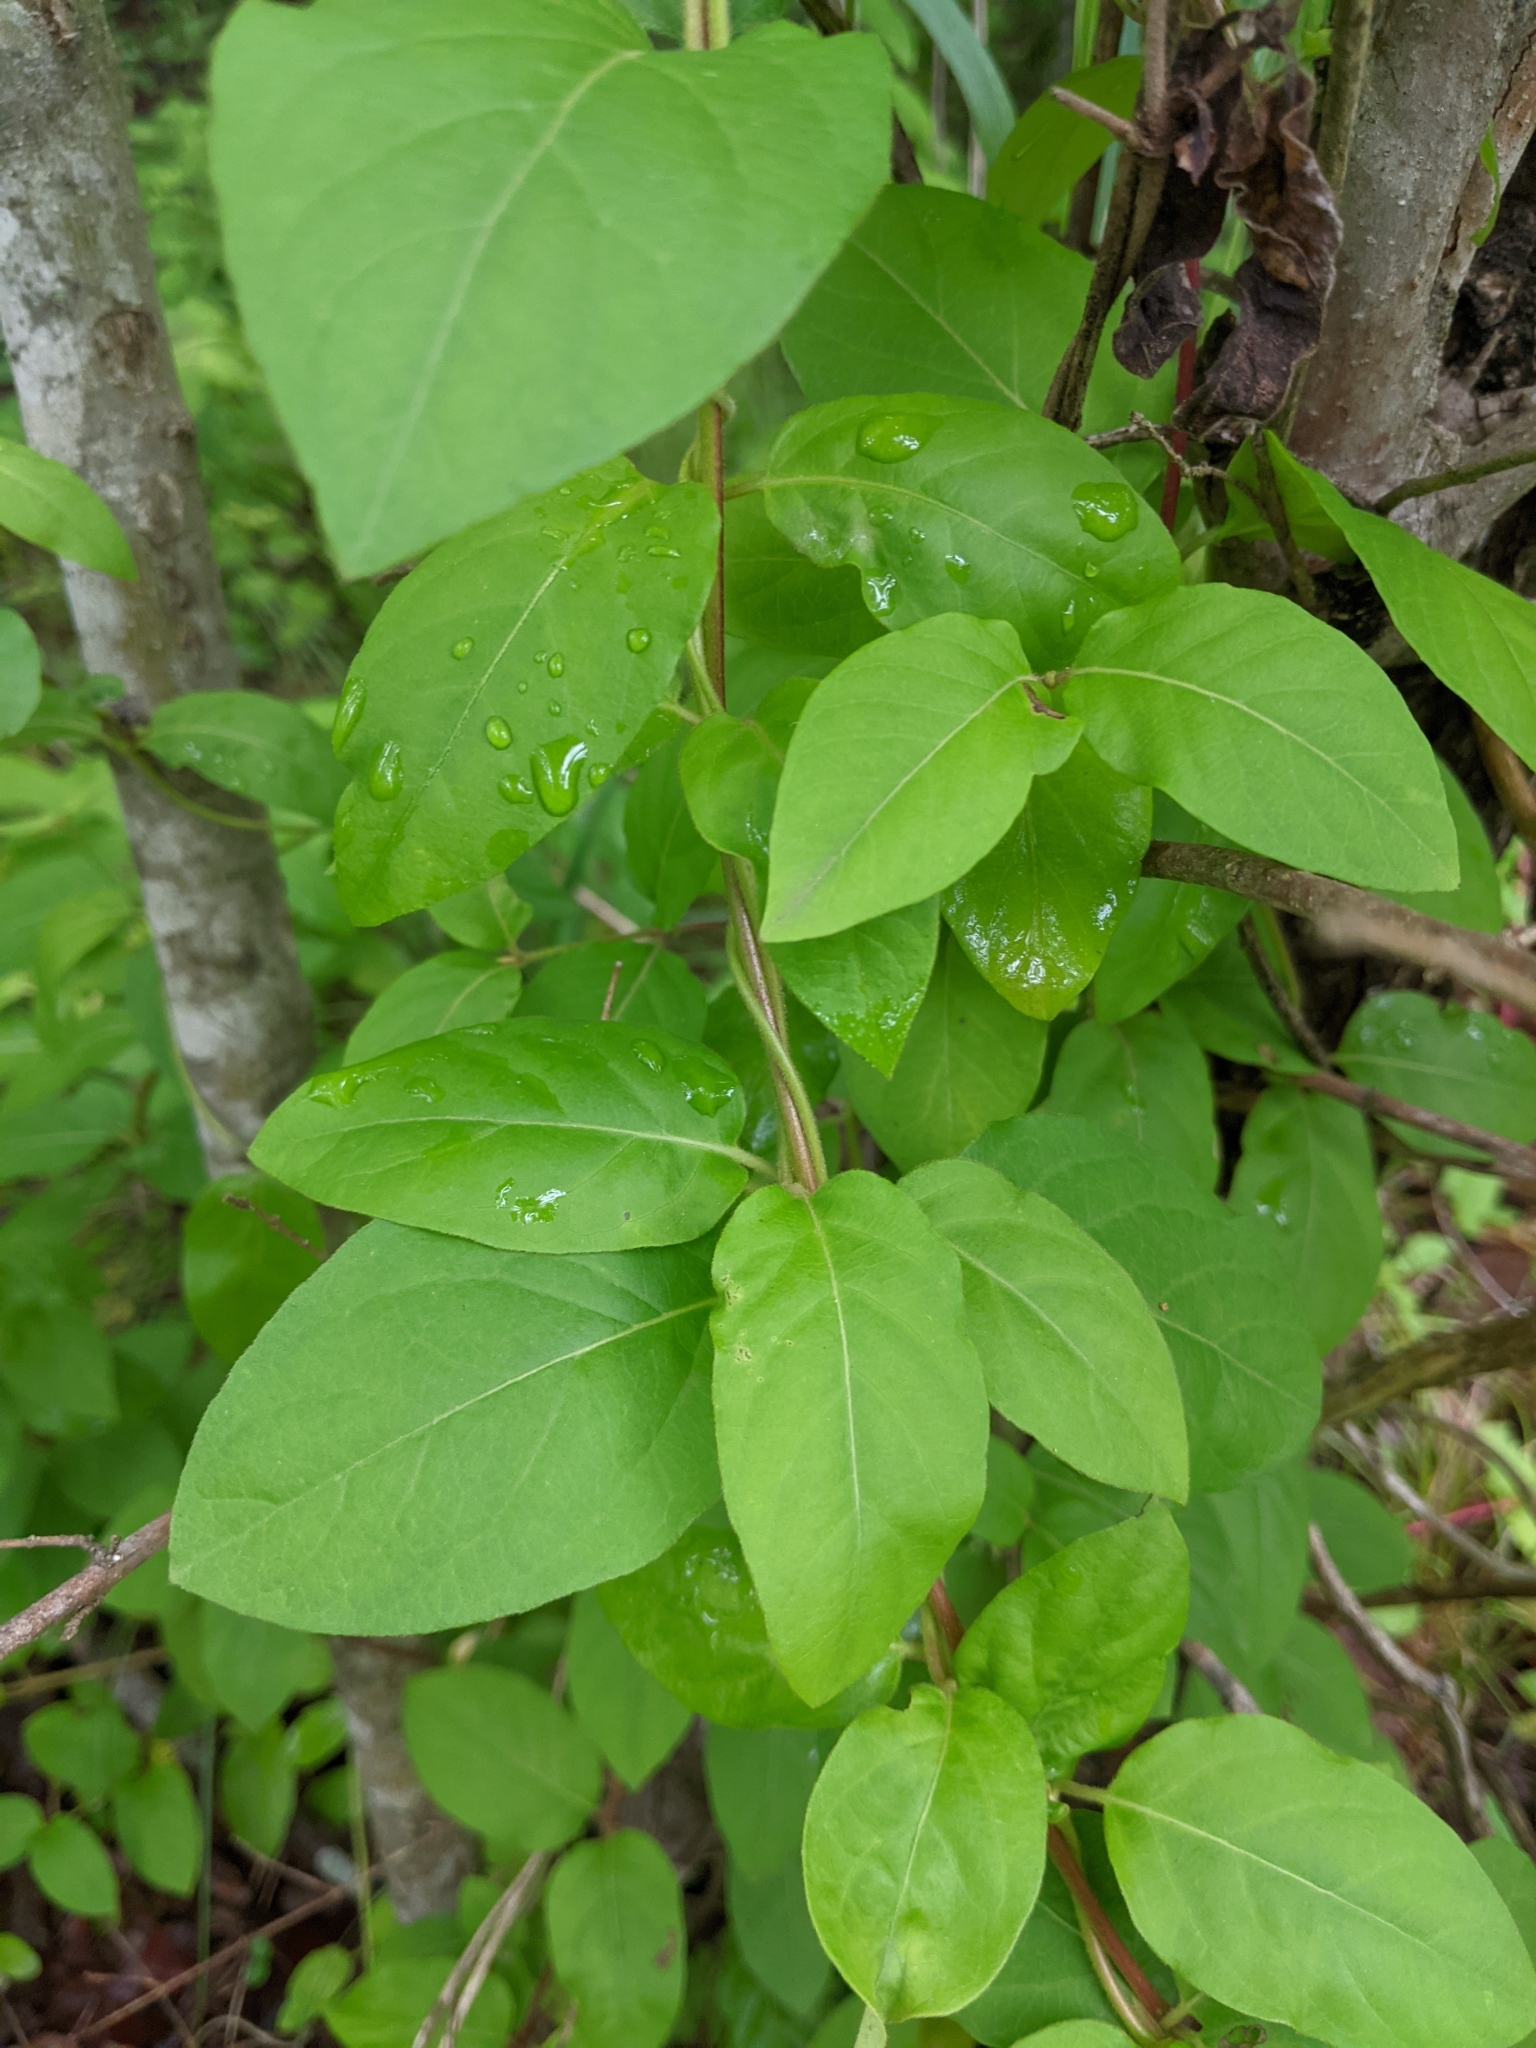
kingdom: Plantae
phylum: Tracheophyta
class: Magnoliopsida
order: Dipsacales
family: Caprifoliaceae
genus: Lonicera
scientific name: Lonicera japonica
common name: Japanese honeysuckle
